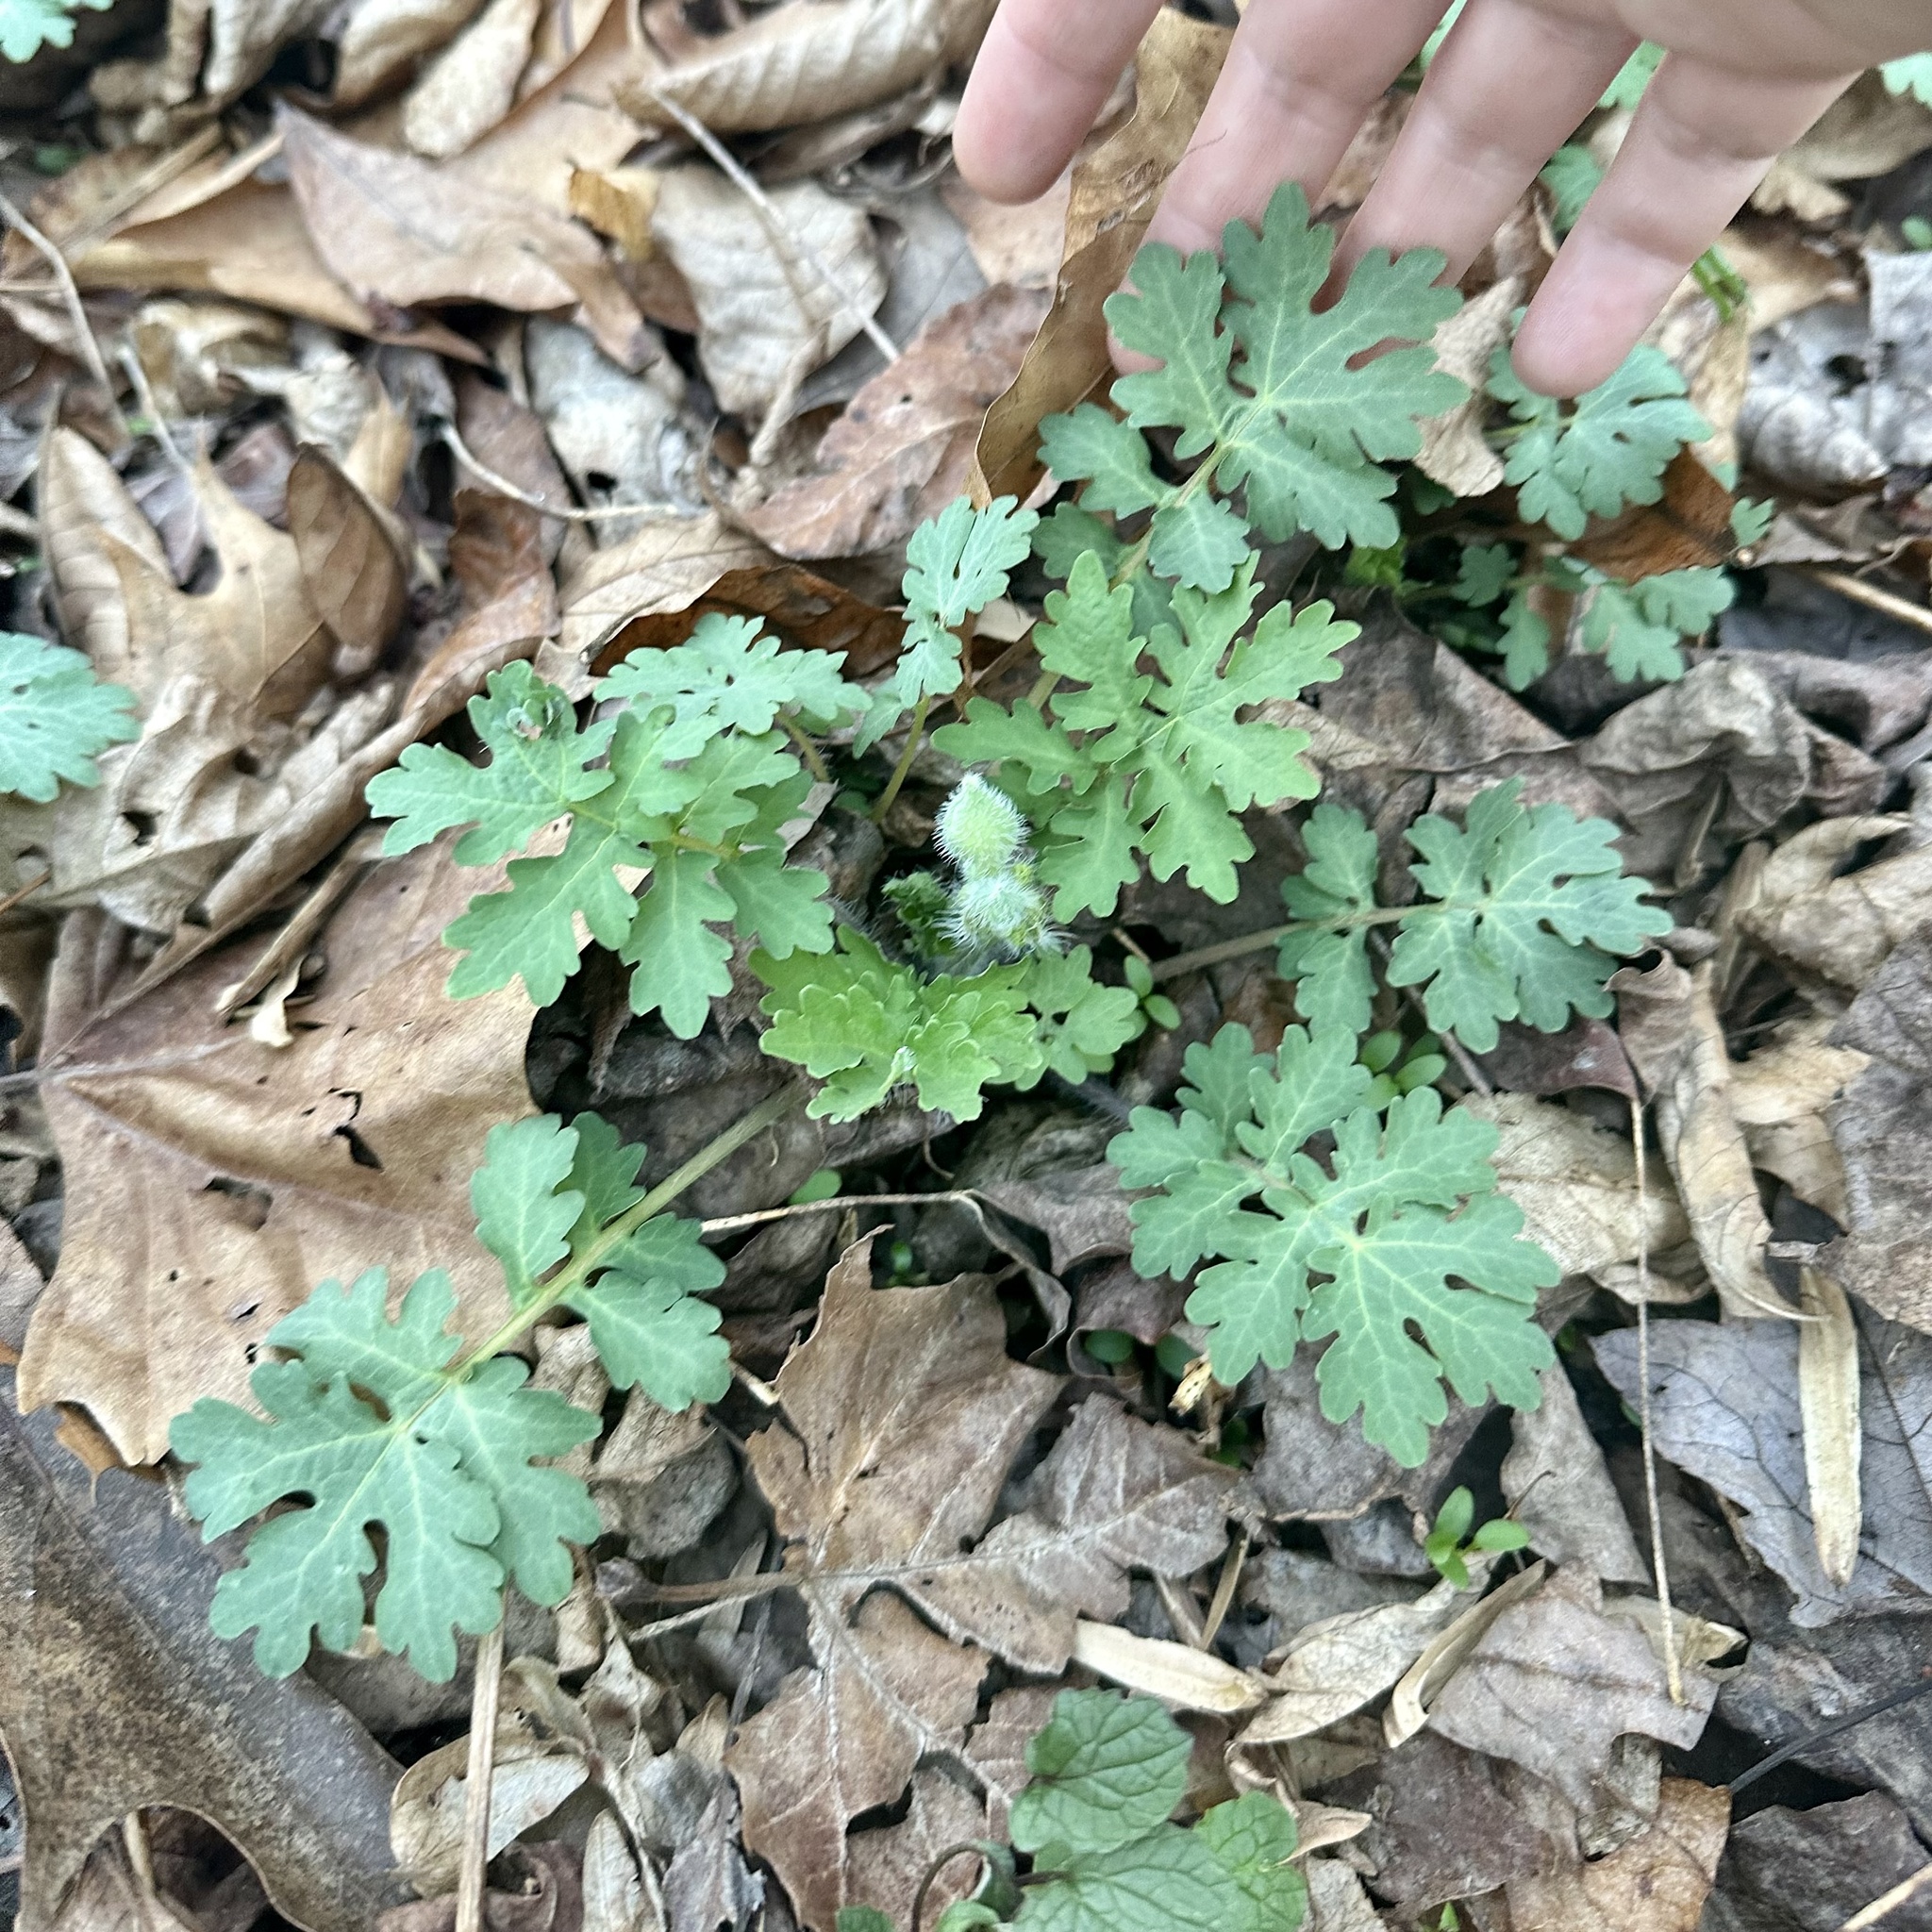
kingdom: Plantae
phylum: Tracheophyta
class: Magnoliopsida
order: Ranunculales
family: Papaveraceae
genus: Stylophorum
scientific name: Stylophorum diphyllum
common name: Celandine poppy
